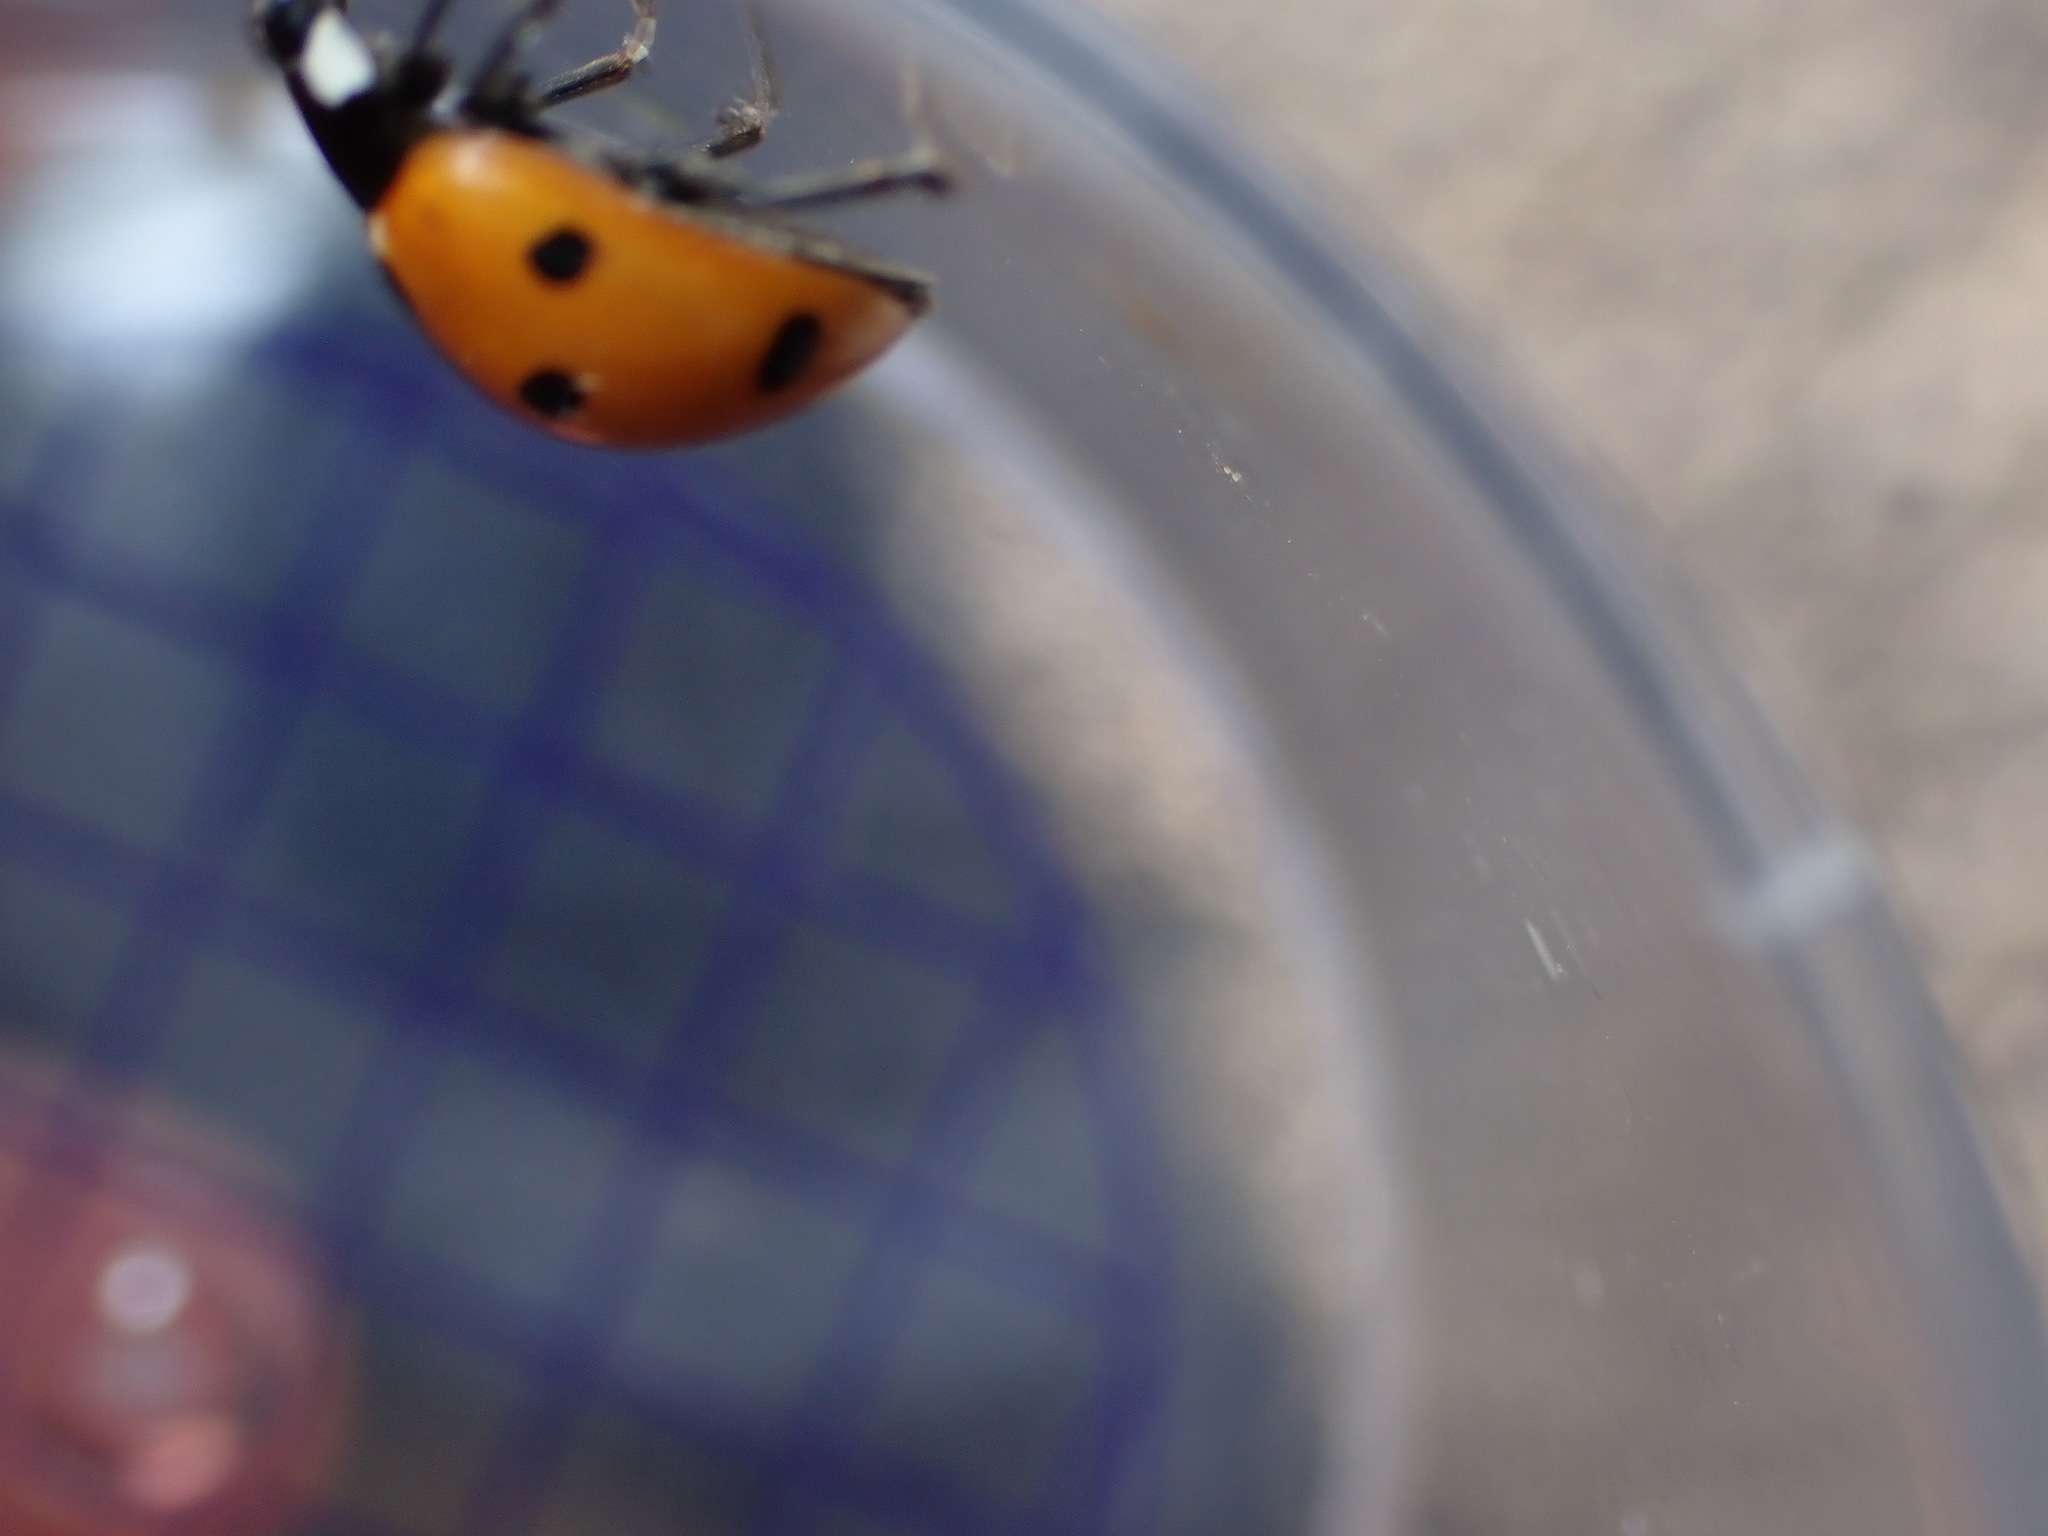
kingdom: Animalia
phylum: Arthropoda
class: Insecta
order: Coleoptera
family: Coccinellidae
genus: Coccinella
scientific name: Coccinella septempunctata
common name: Sevenspotted lady beetle
